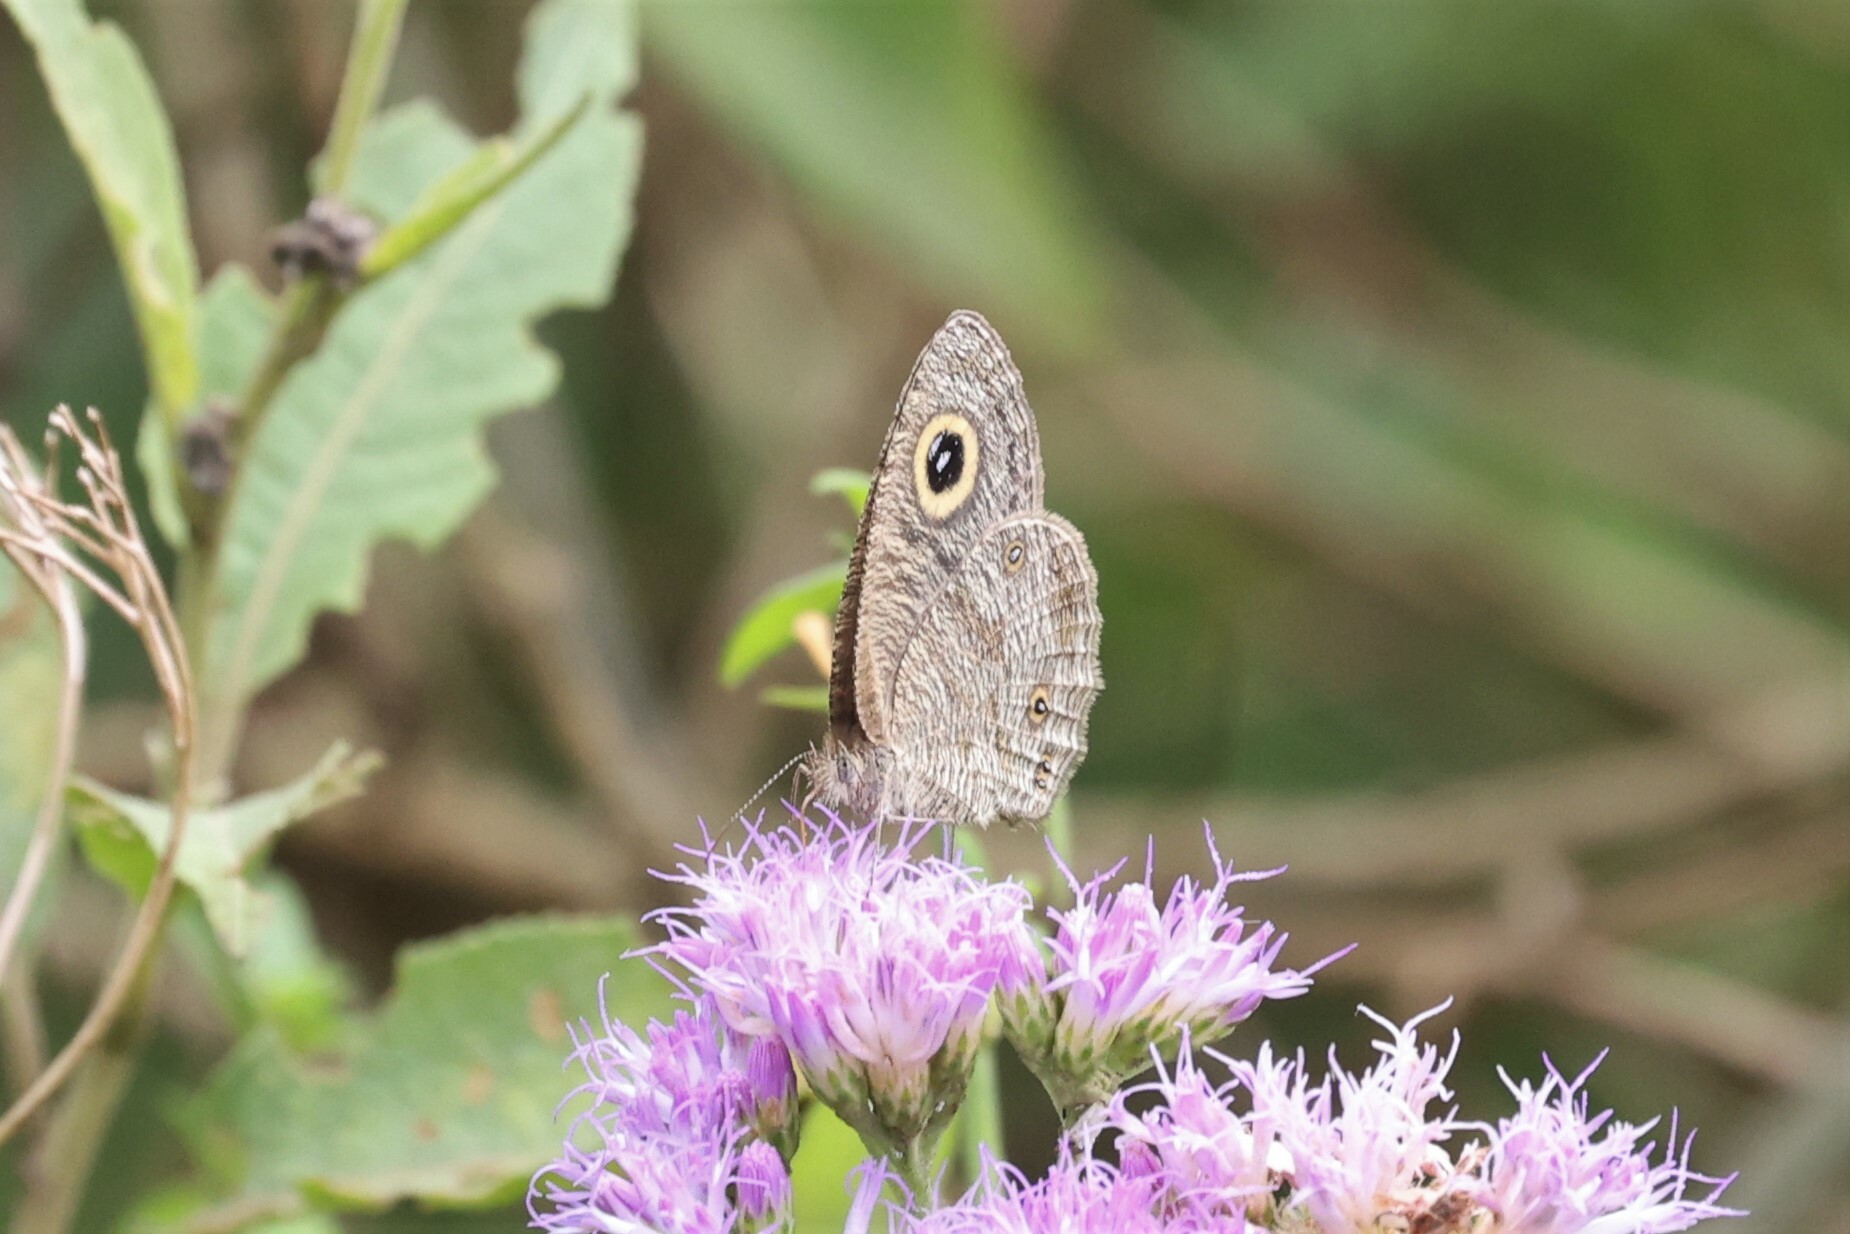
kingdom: Animalia
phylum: Arthropoda
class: Insecta
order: Lepidoptera
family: Nymphalidae
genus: Ypthima
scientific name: Ypthima doleta
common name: Common ringlet
